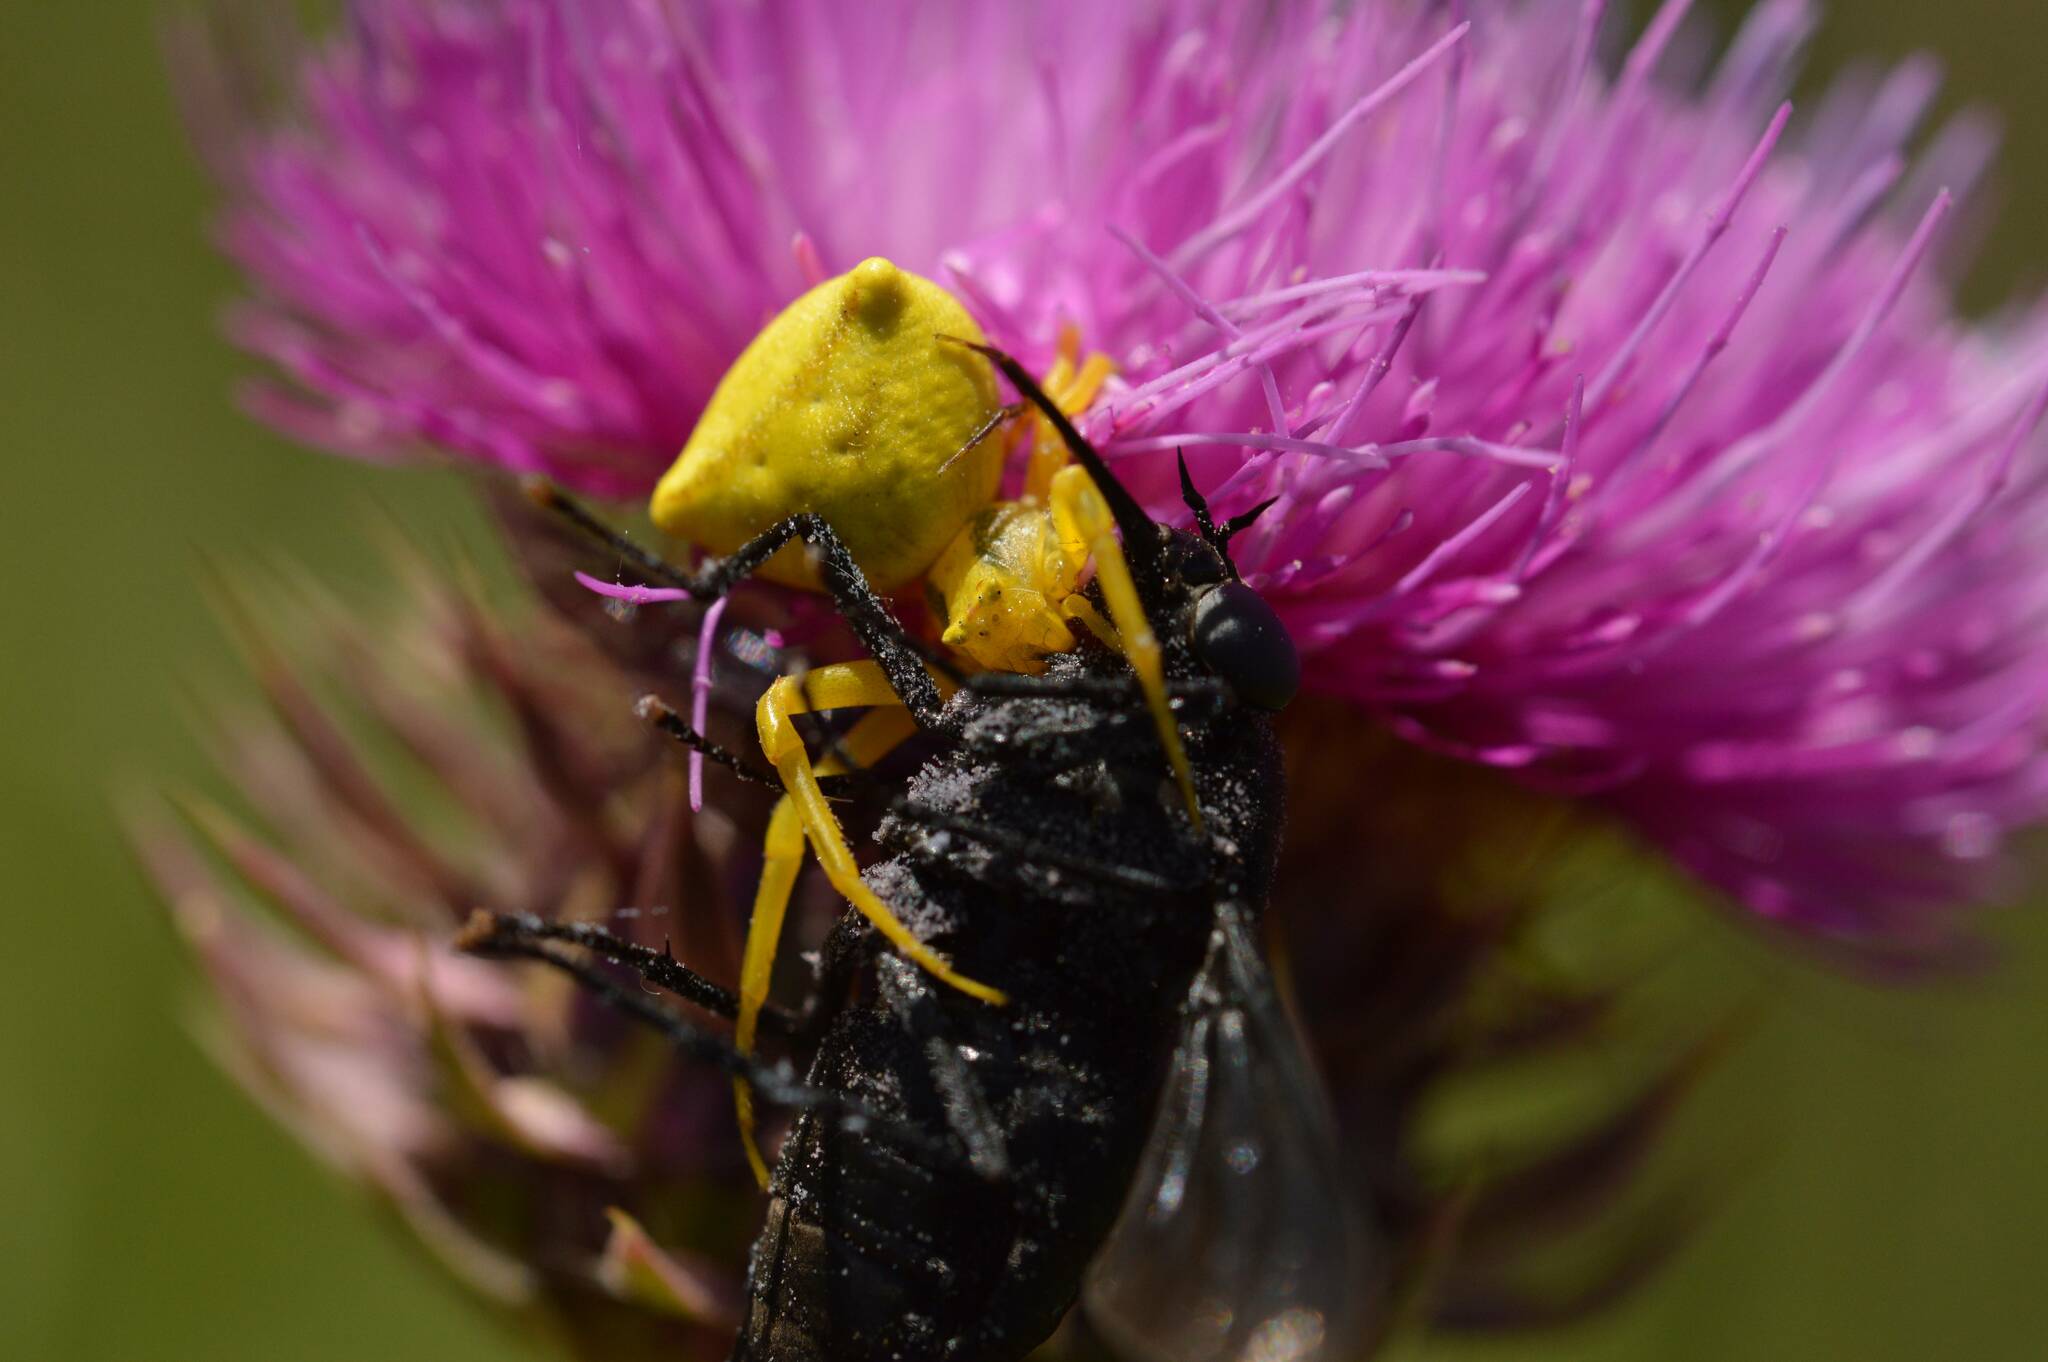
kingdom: Animalia
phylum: Arthropoda
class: Arachnida
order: Araneae
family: Thomisidae
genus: Thomisus
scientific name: Thomisus onustus
